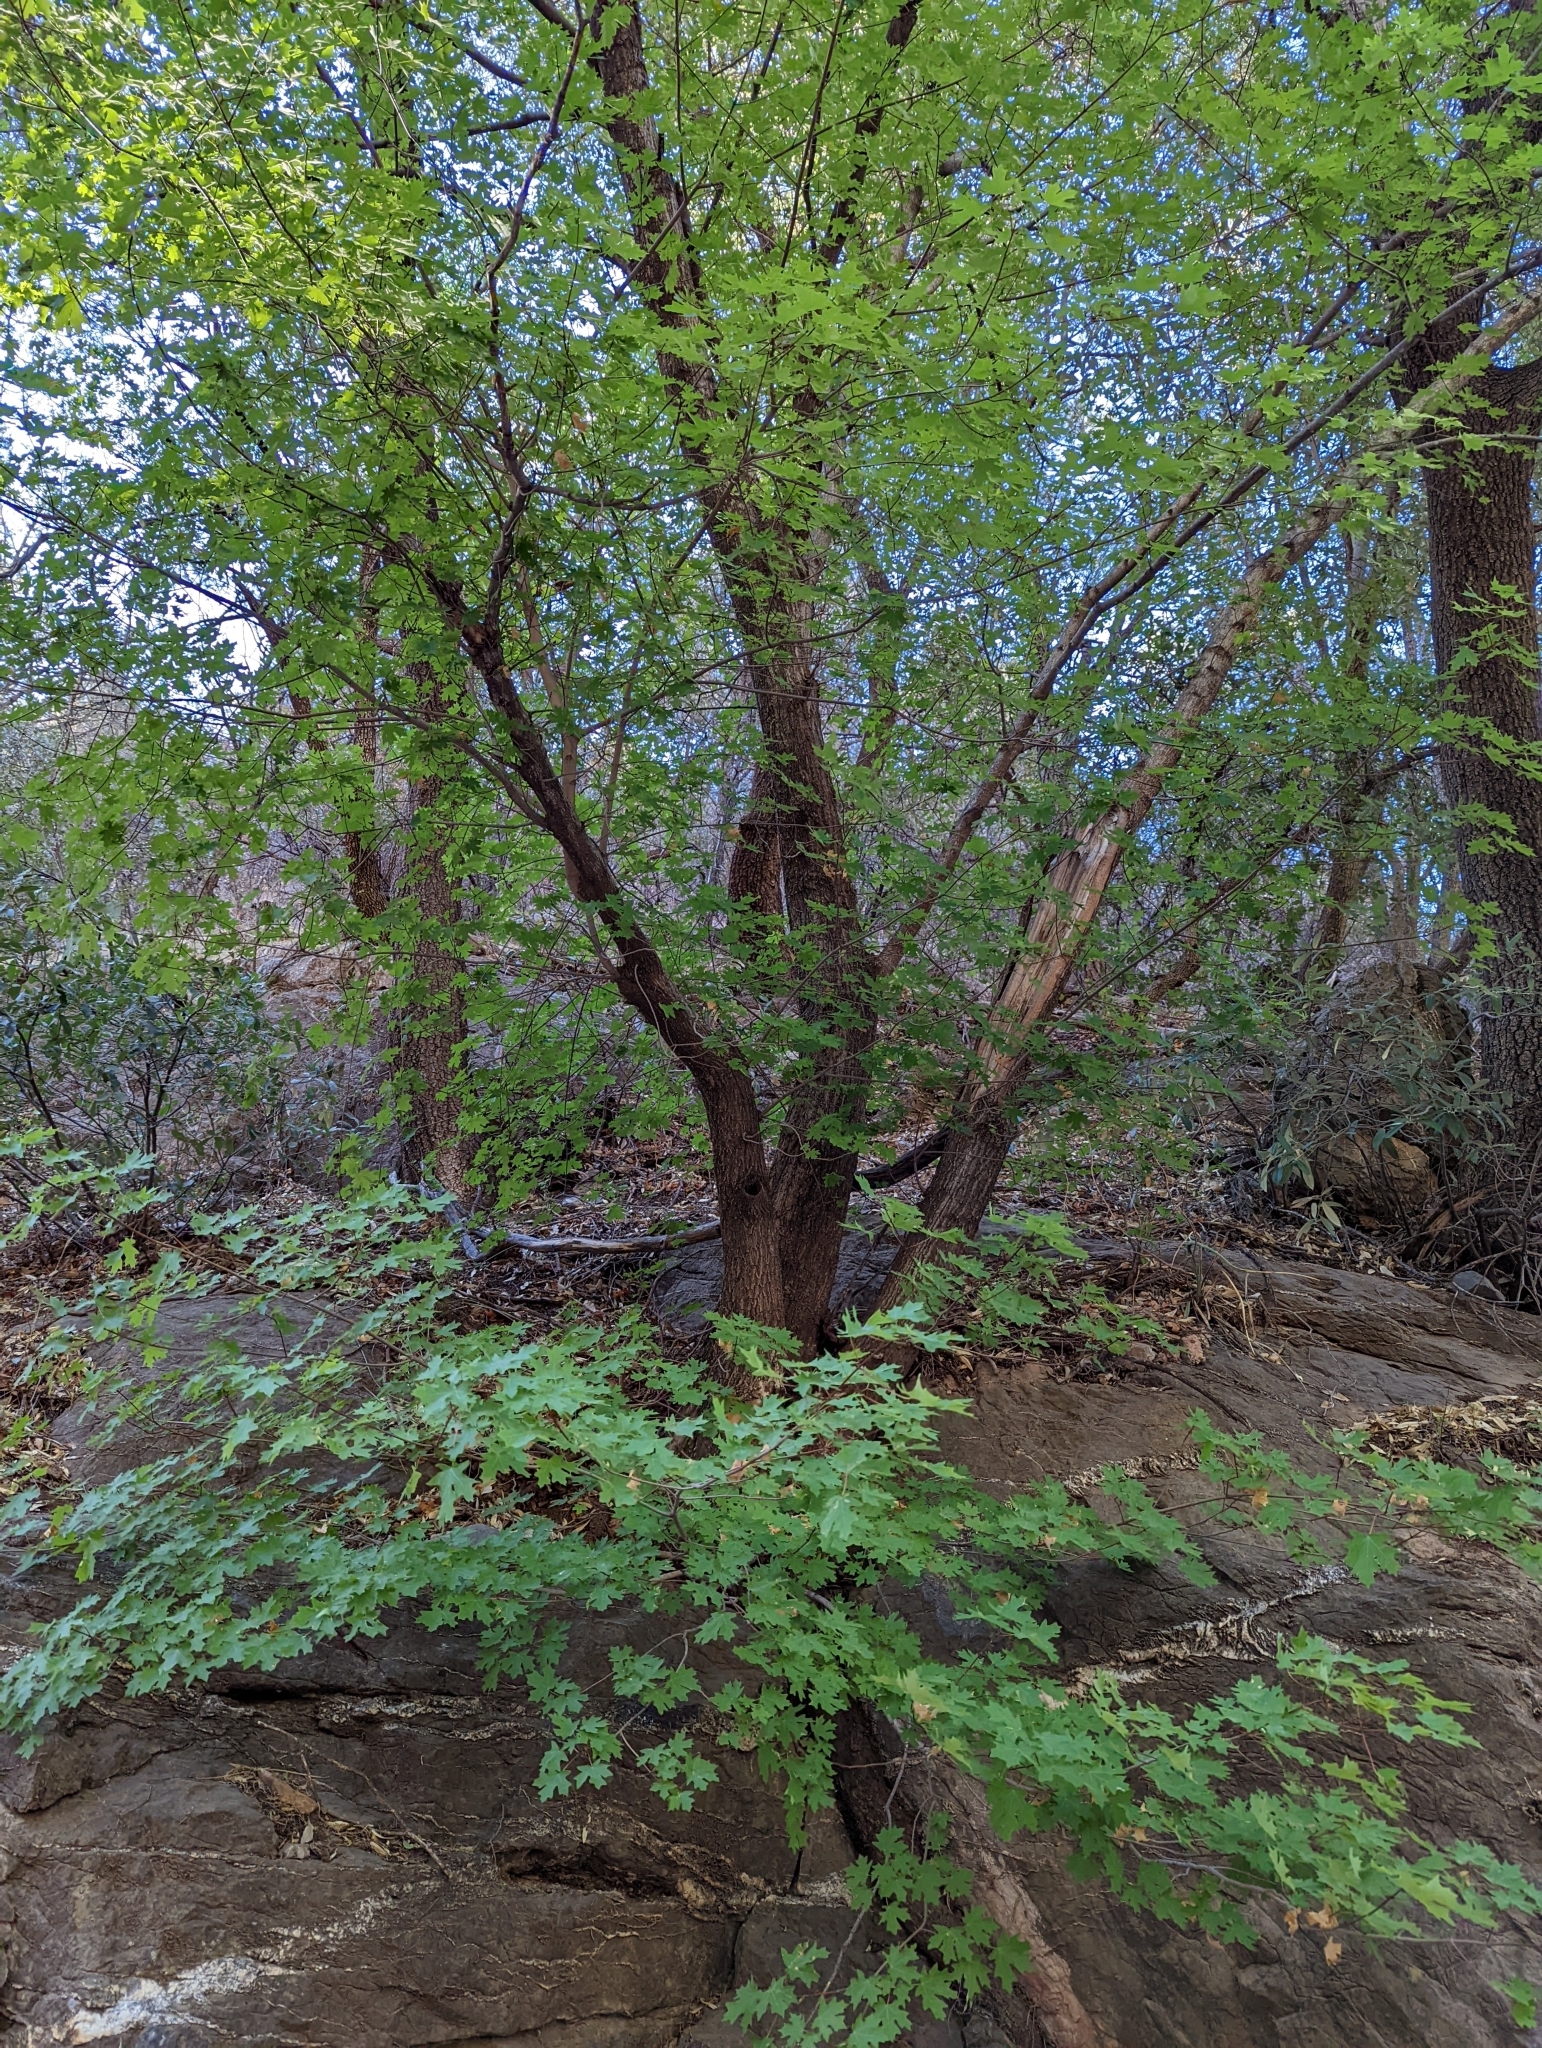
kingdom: Plantae
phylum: Tracheophyta
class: Magnoliopsida
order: Sapindales
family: Sapindaceae
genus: Acer
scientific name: Acer grandidentatum
